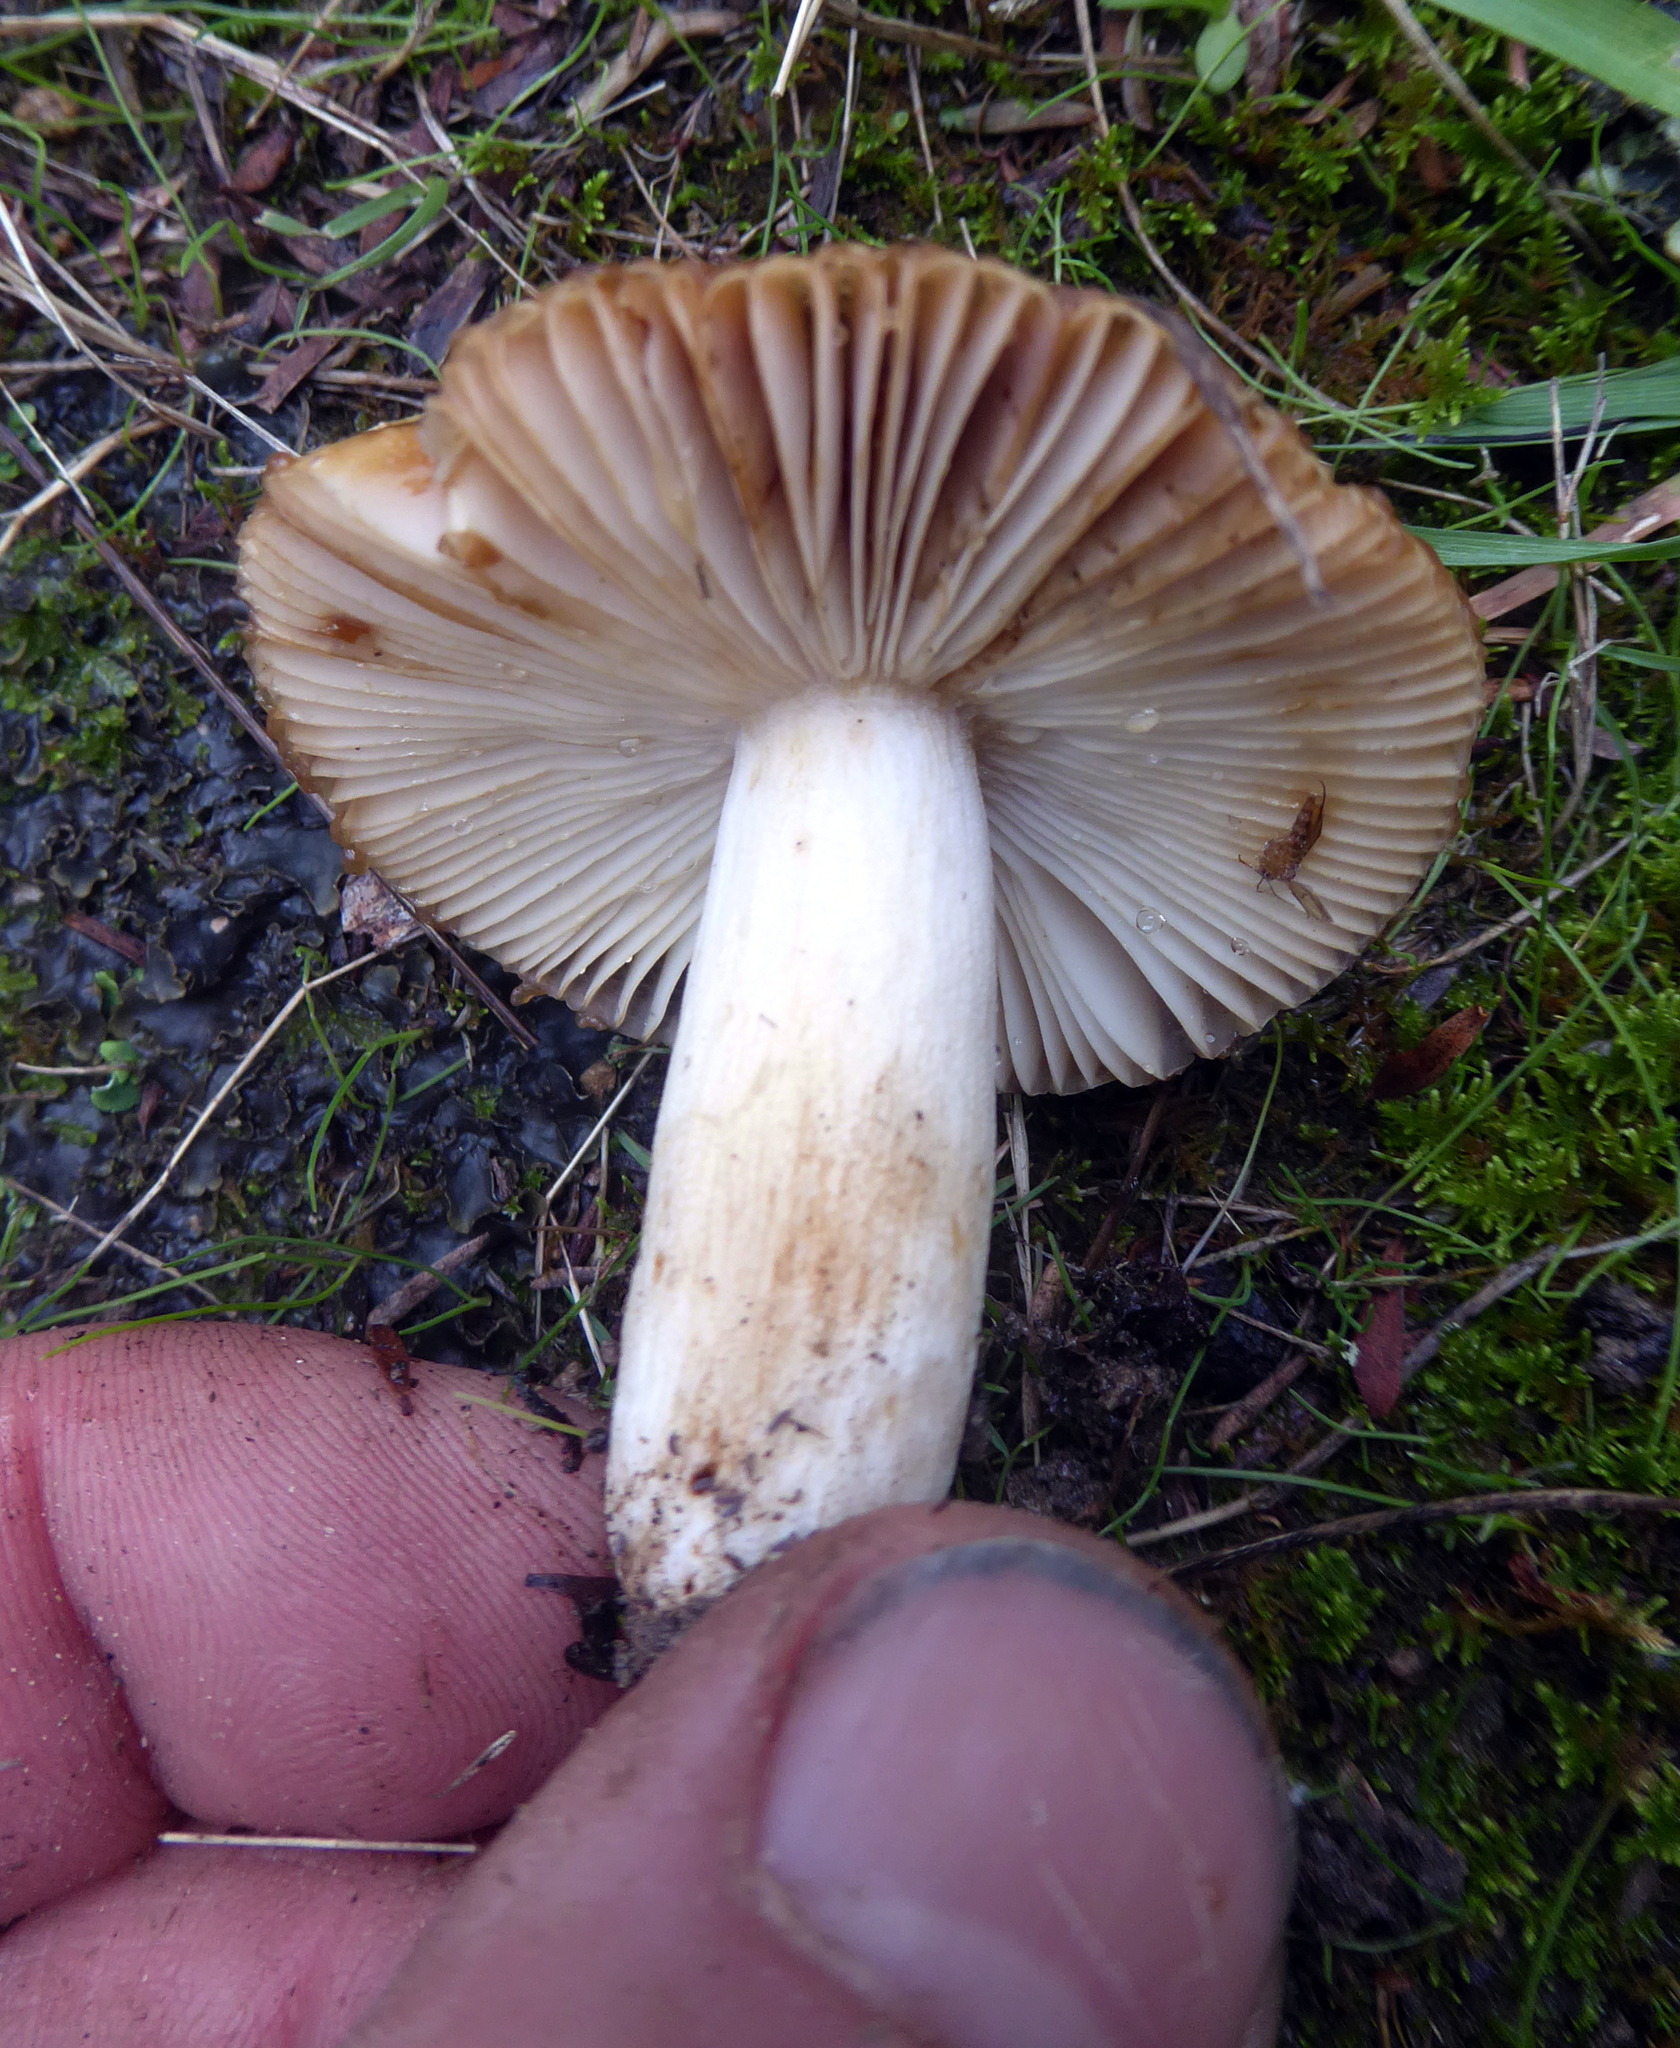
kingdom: Fungi
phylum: Basidiomycota
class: Agaricomycetes
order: Russulales
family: Russulaceae
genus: Russula
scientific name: Russula acrolamellata
